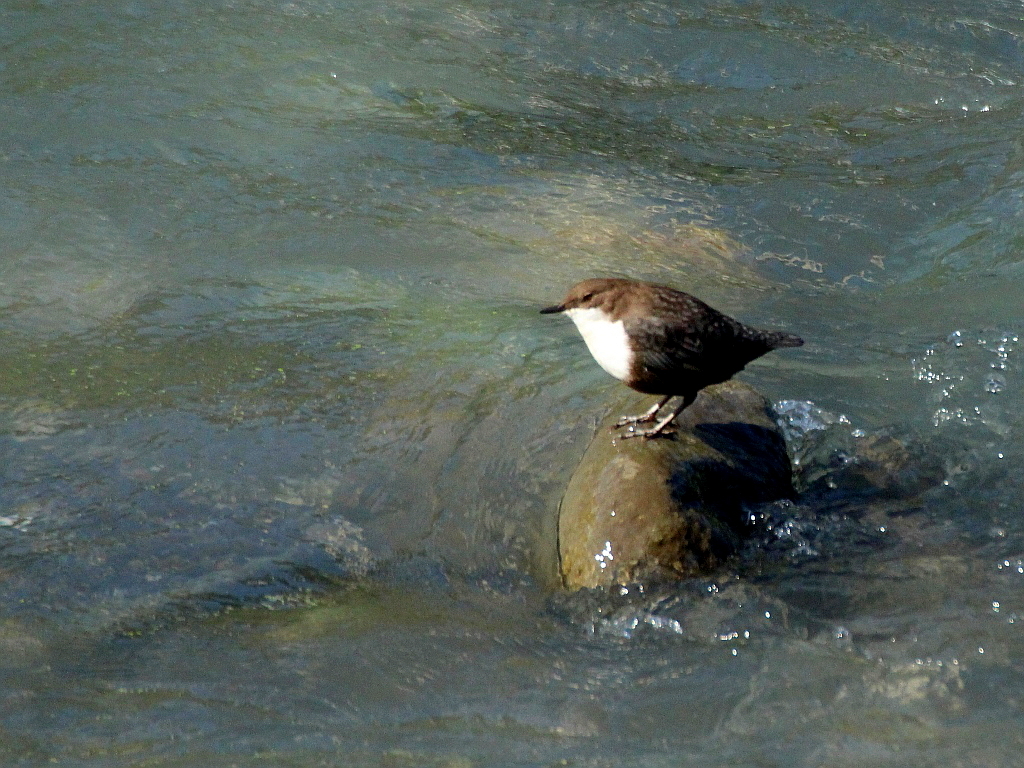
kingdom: Animalia
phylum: Chordata
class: Aves
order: Passeriformes
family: Cinclidae
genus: Cinclus
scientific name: Cinclus cinclus
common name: White-throated dipper
